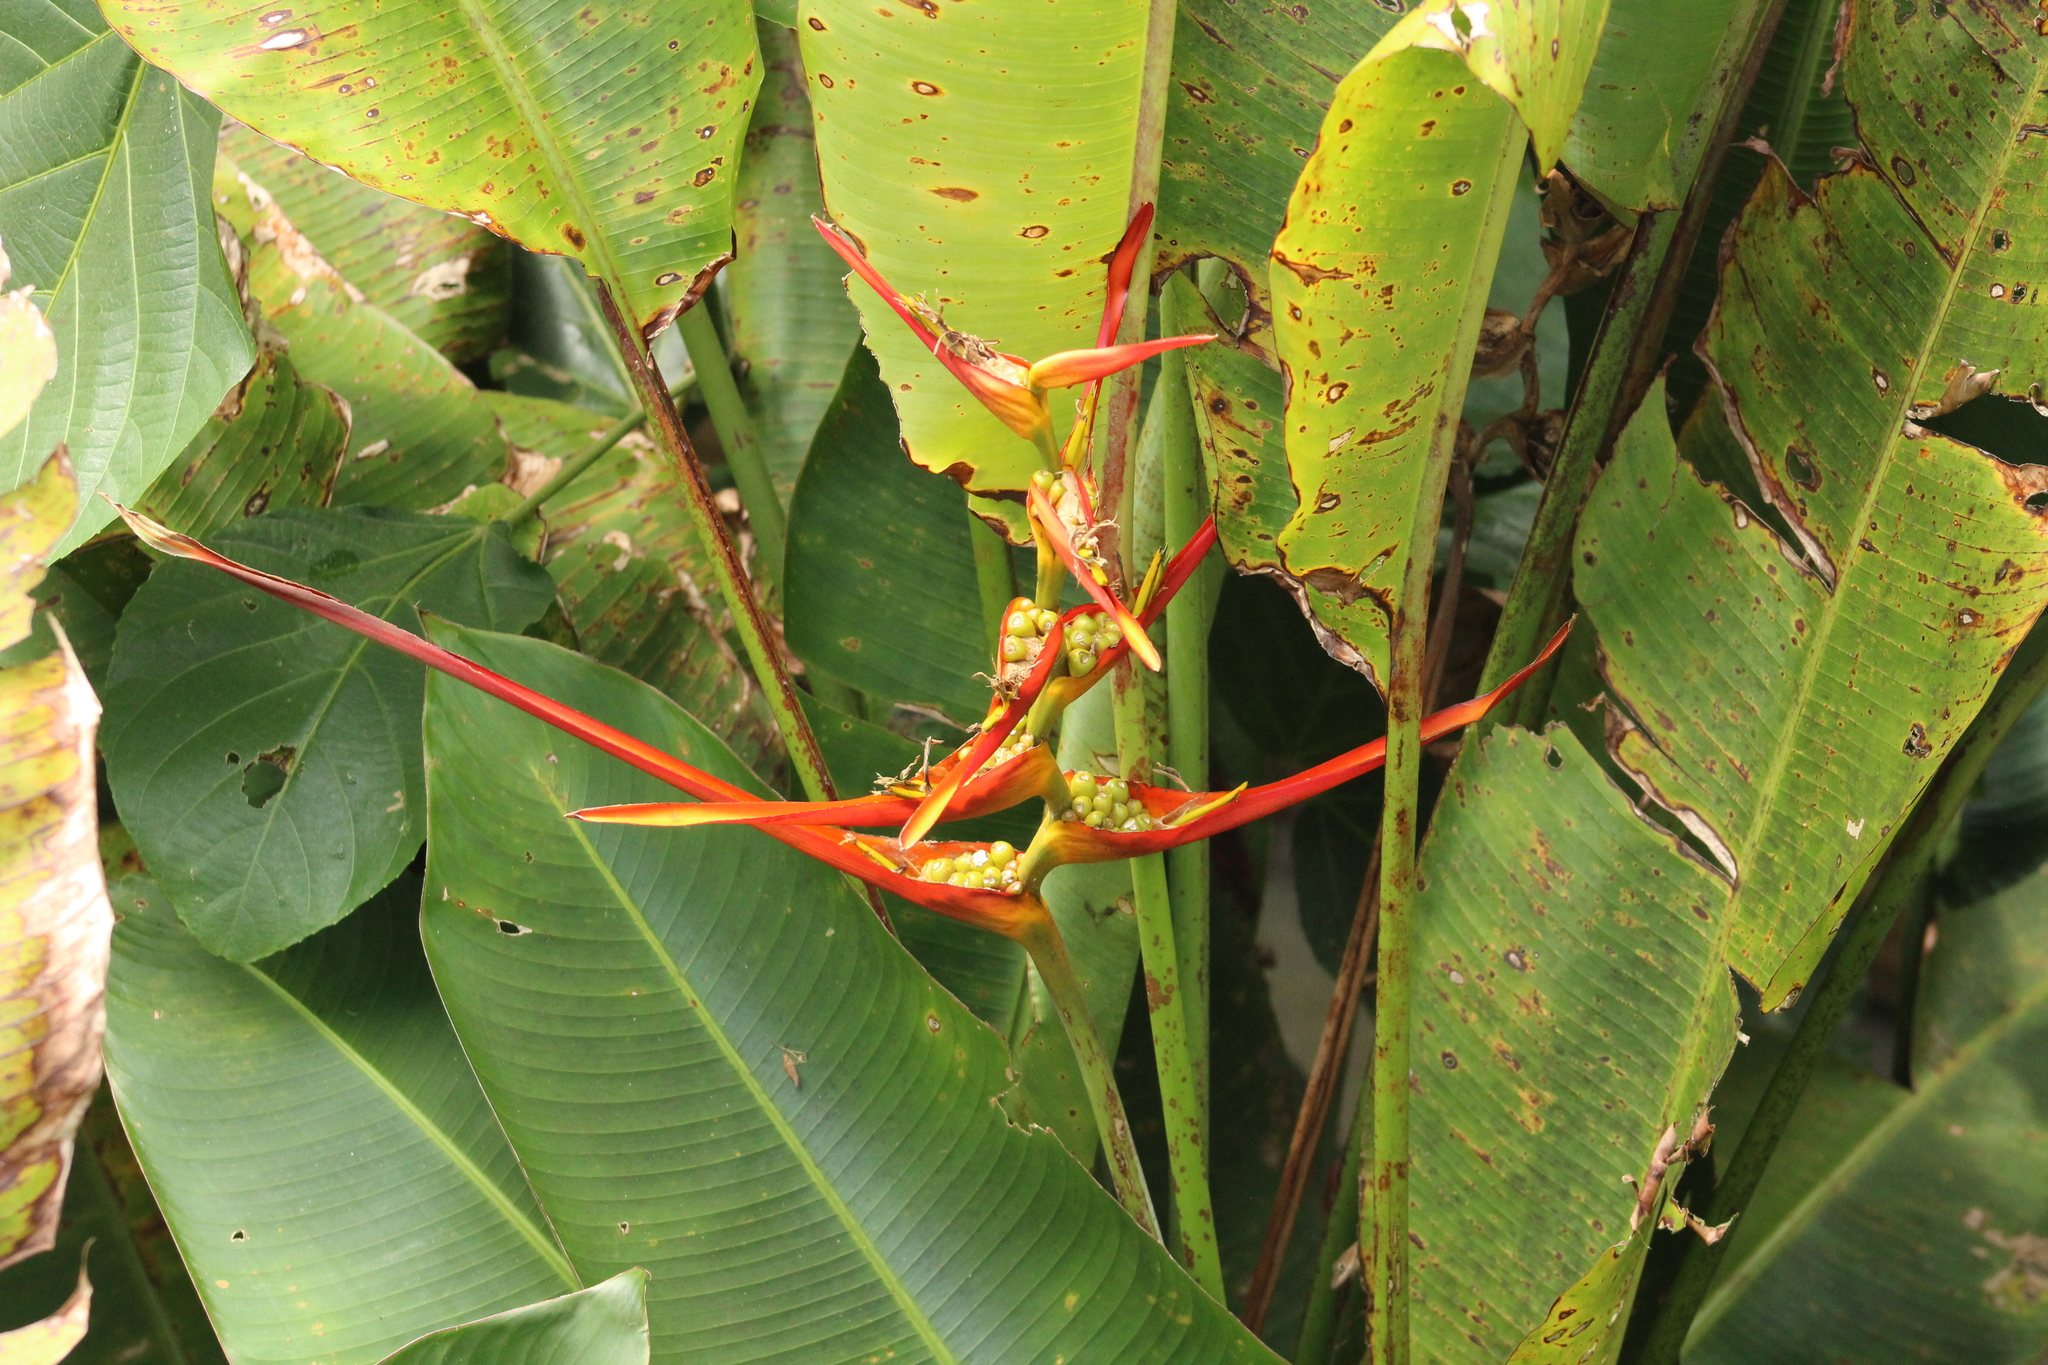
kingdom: Plantae
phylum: Tracheophyta
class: Liliopsida
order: Zingiberales
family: Heliconiaceae
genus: Heliconia
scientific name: Heliconia latispatha
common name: Expanded lobsterclaw
